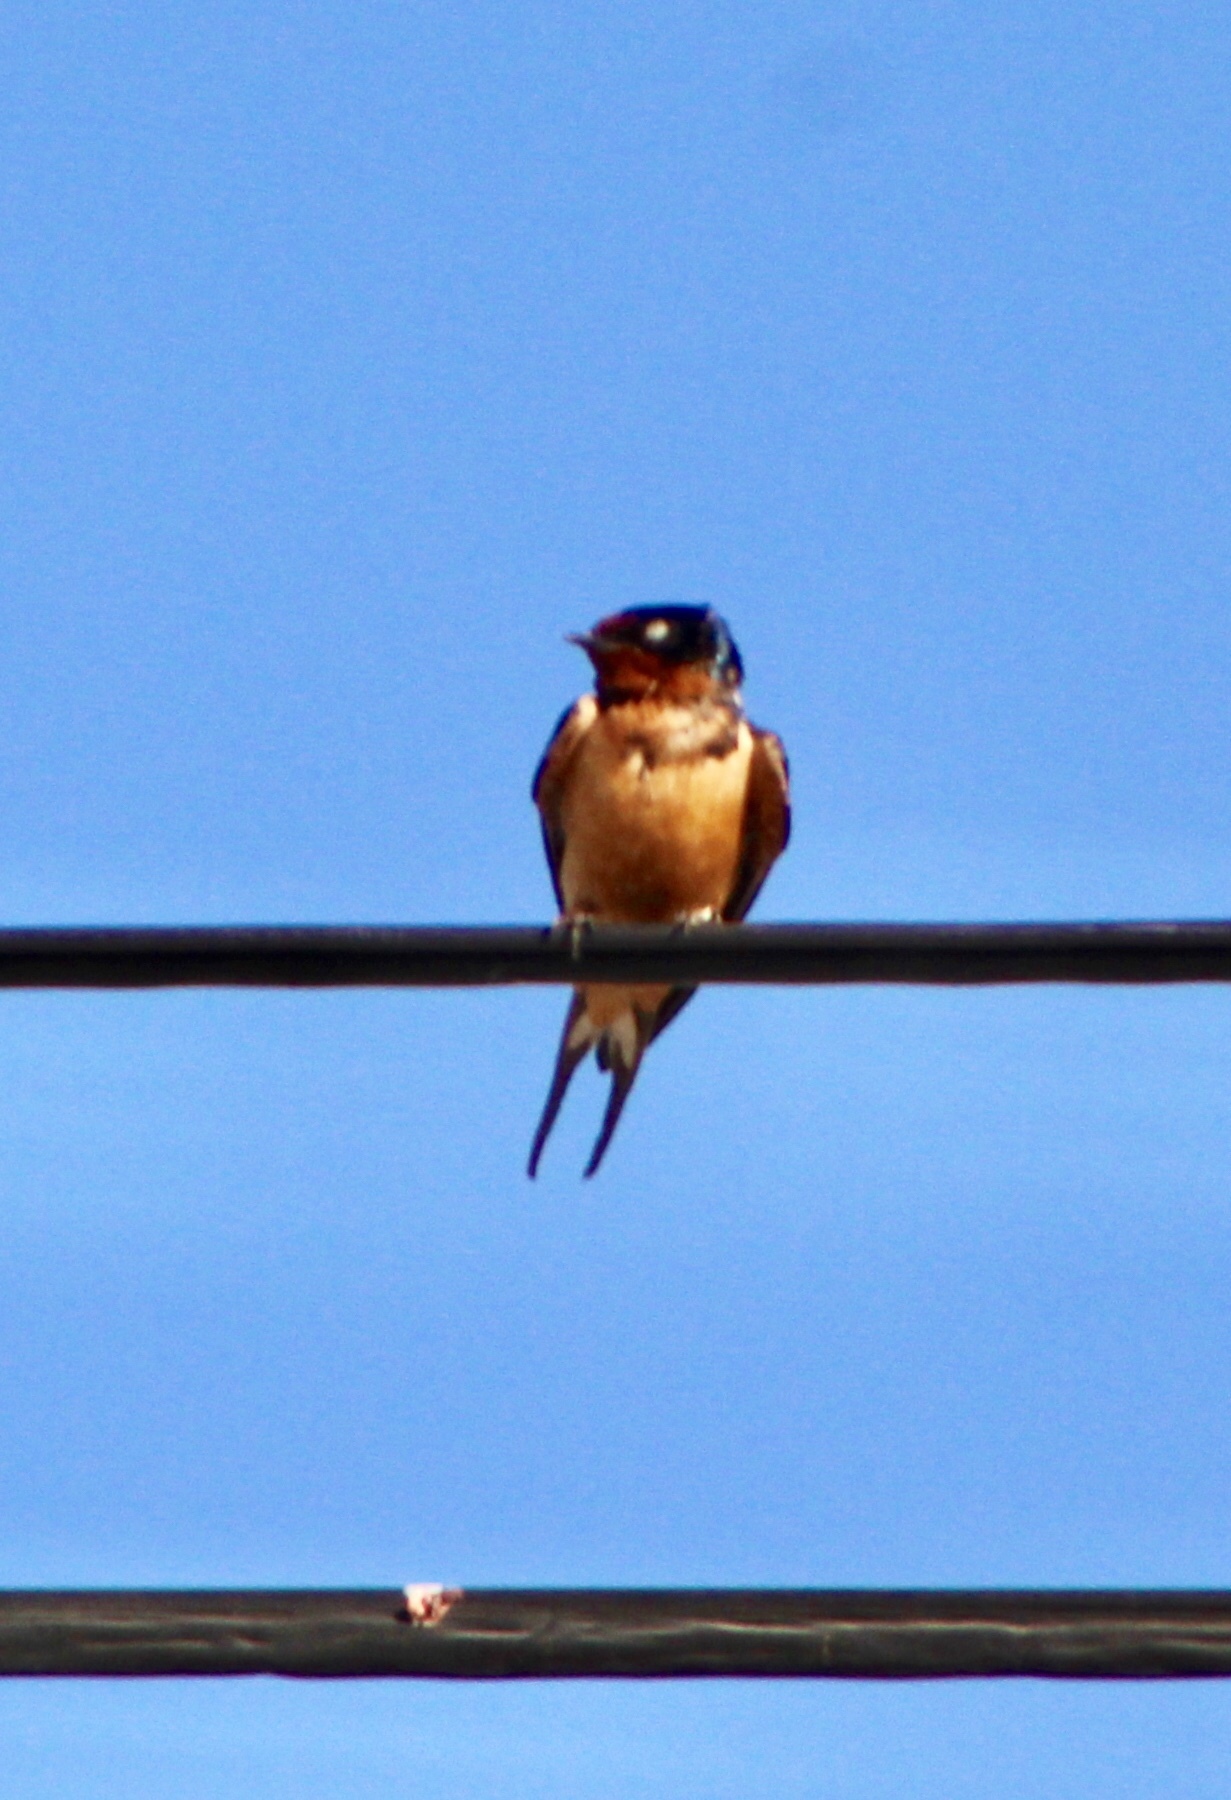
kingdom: Animalia
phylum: Chordata
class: Aves
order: Passeriformes
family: Hirundinidae
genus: Hirundo
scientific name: Hirundo rustica
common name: Barn swallow
